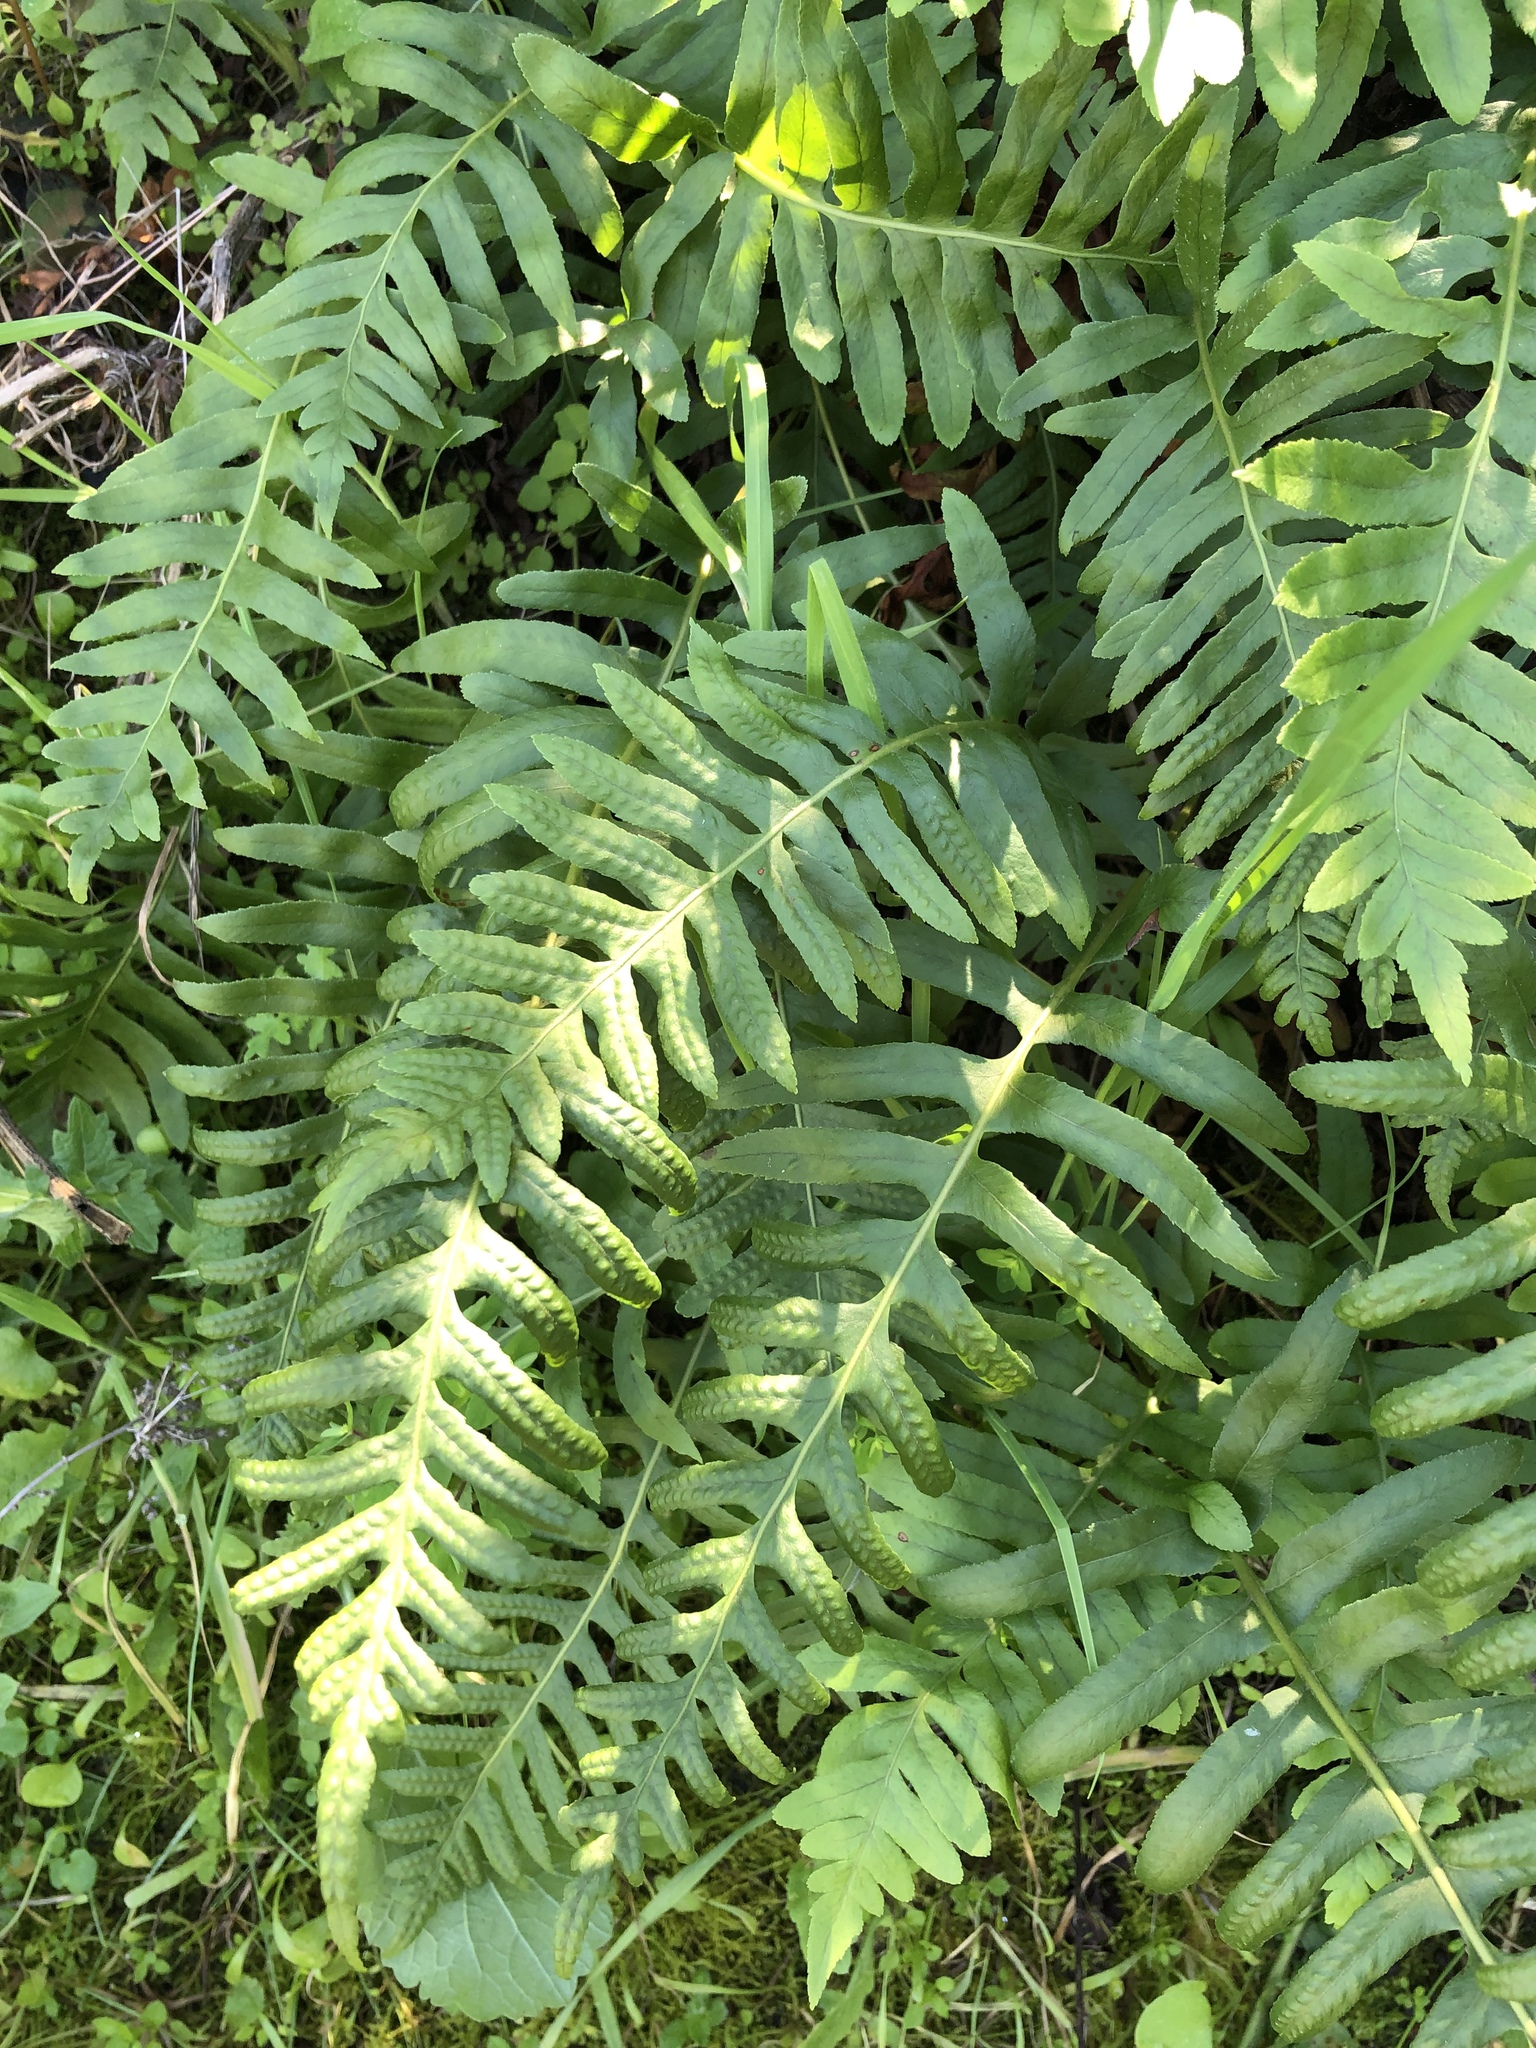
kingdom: Plantae
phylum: Tracheophyta
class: Polypodiopsida
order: Polypodiales
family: Polypodiaceae
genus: Polypodium
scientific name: Polypodium californicum
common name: California polypody
